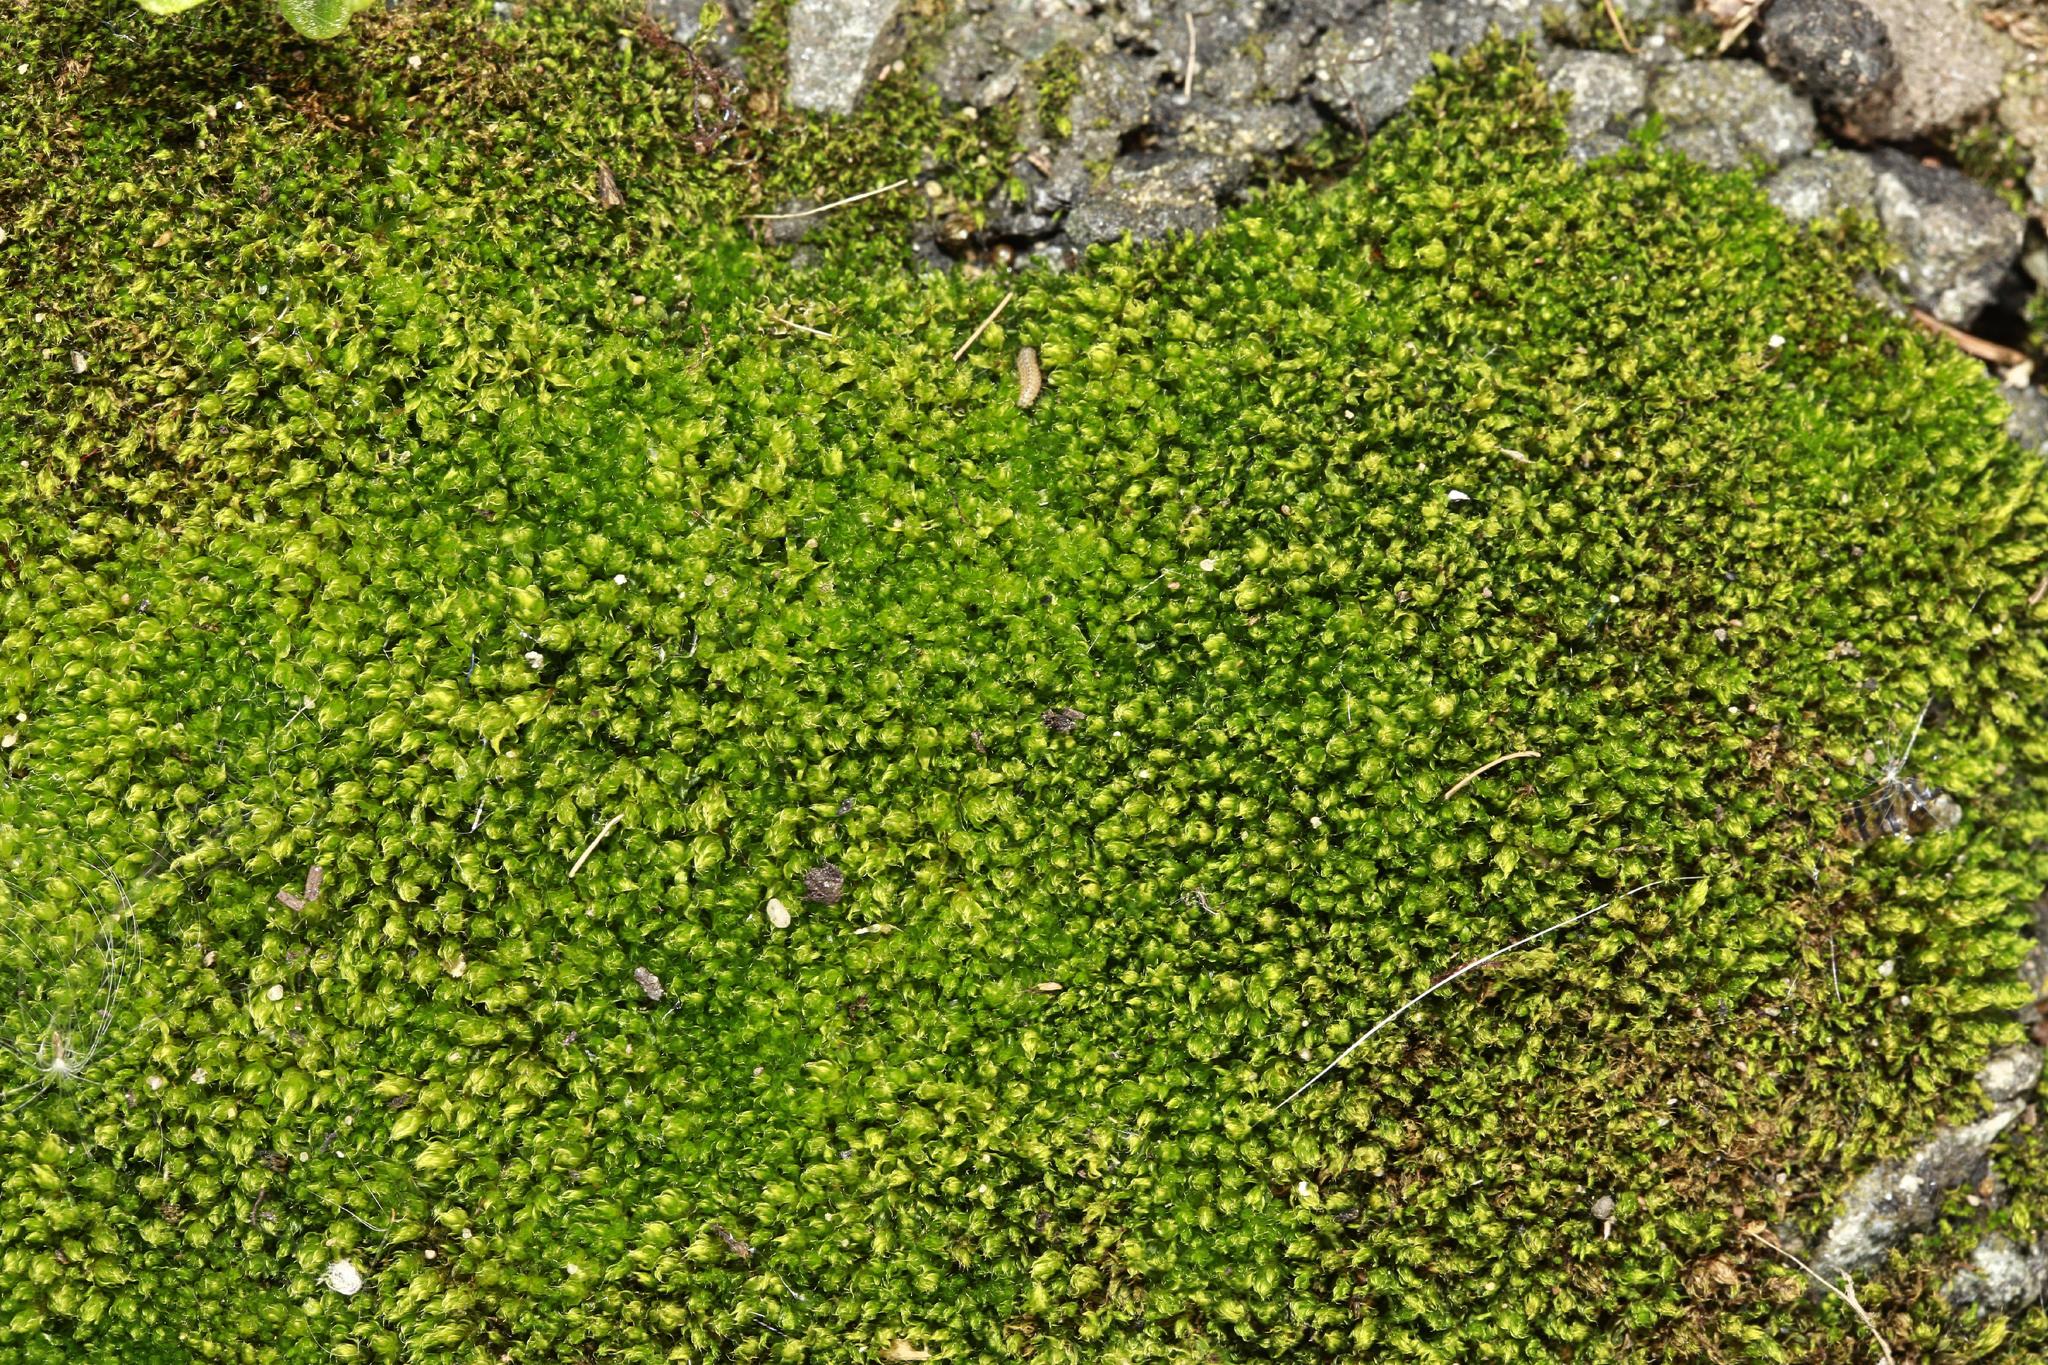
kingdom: Plantae
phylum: Bryophyta
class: Bryopsida
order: Bryales
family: Bryaceae
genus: Rosulabryum
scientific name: Rosulabryum capillare
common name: Capillary thread-moss
